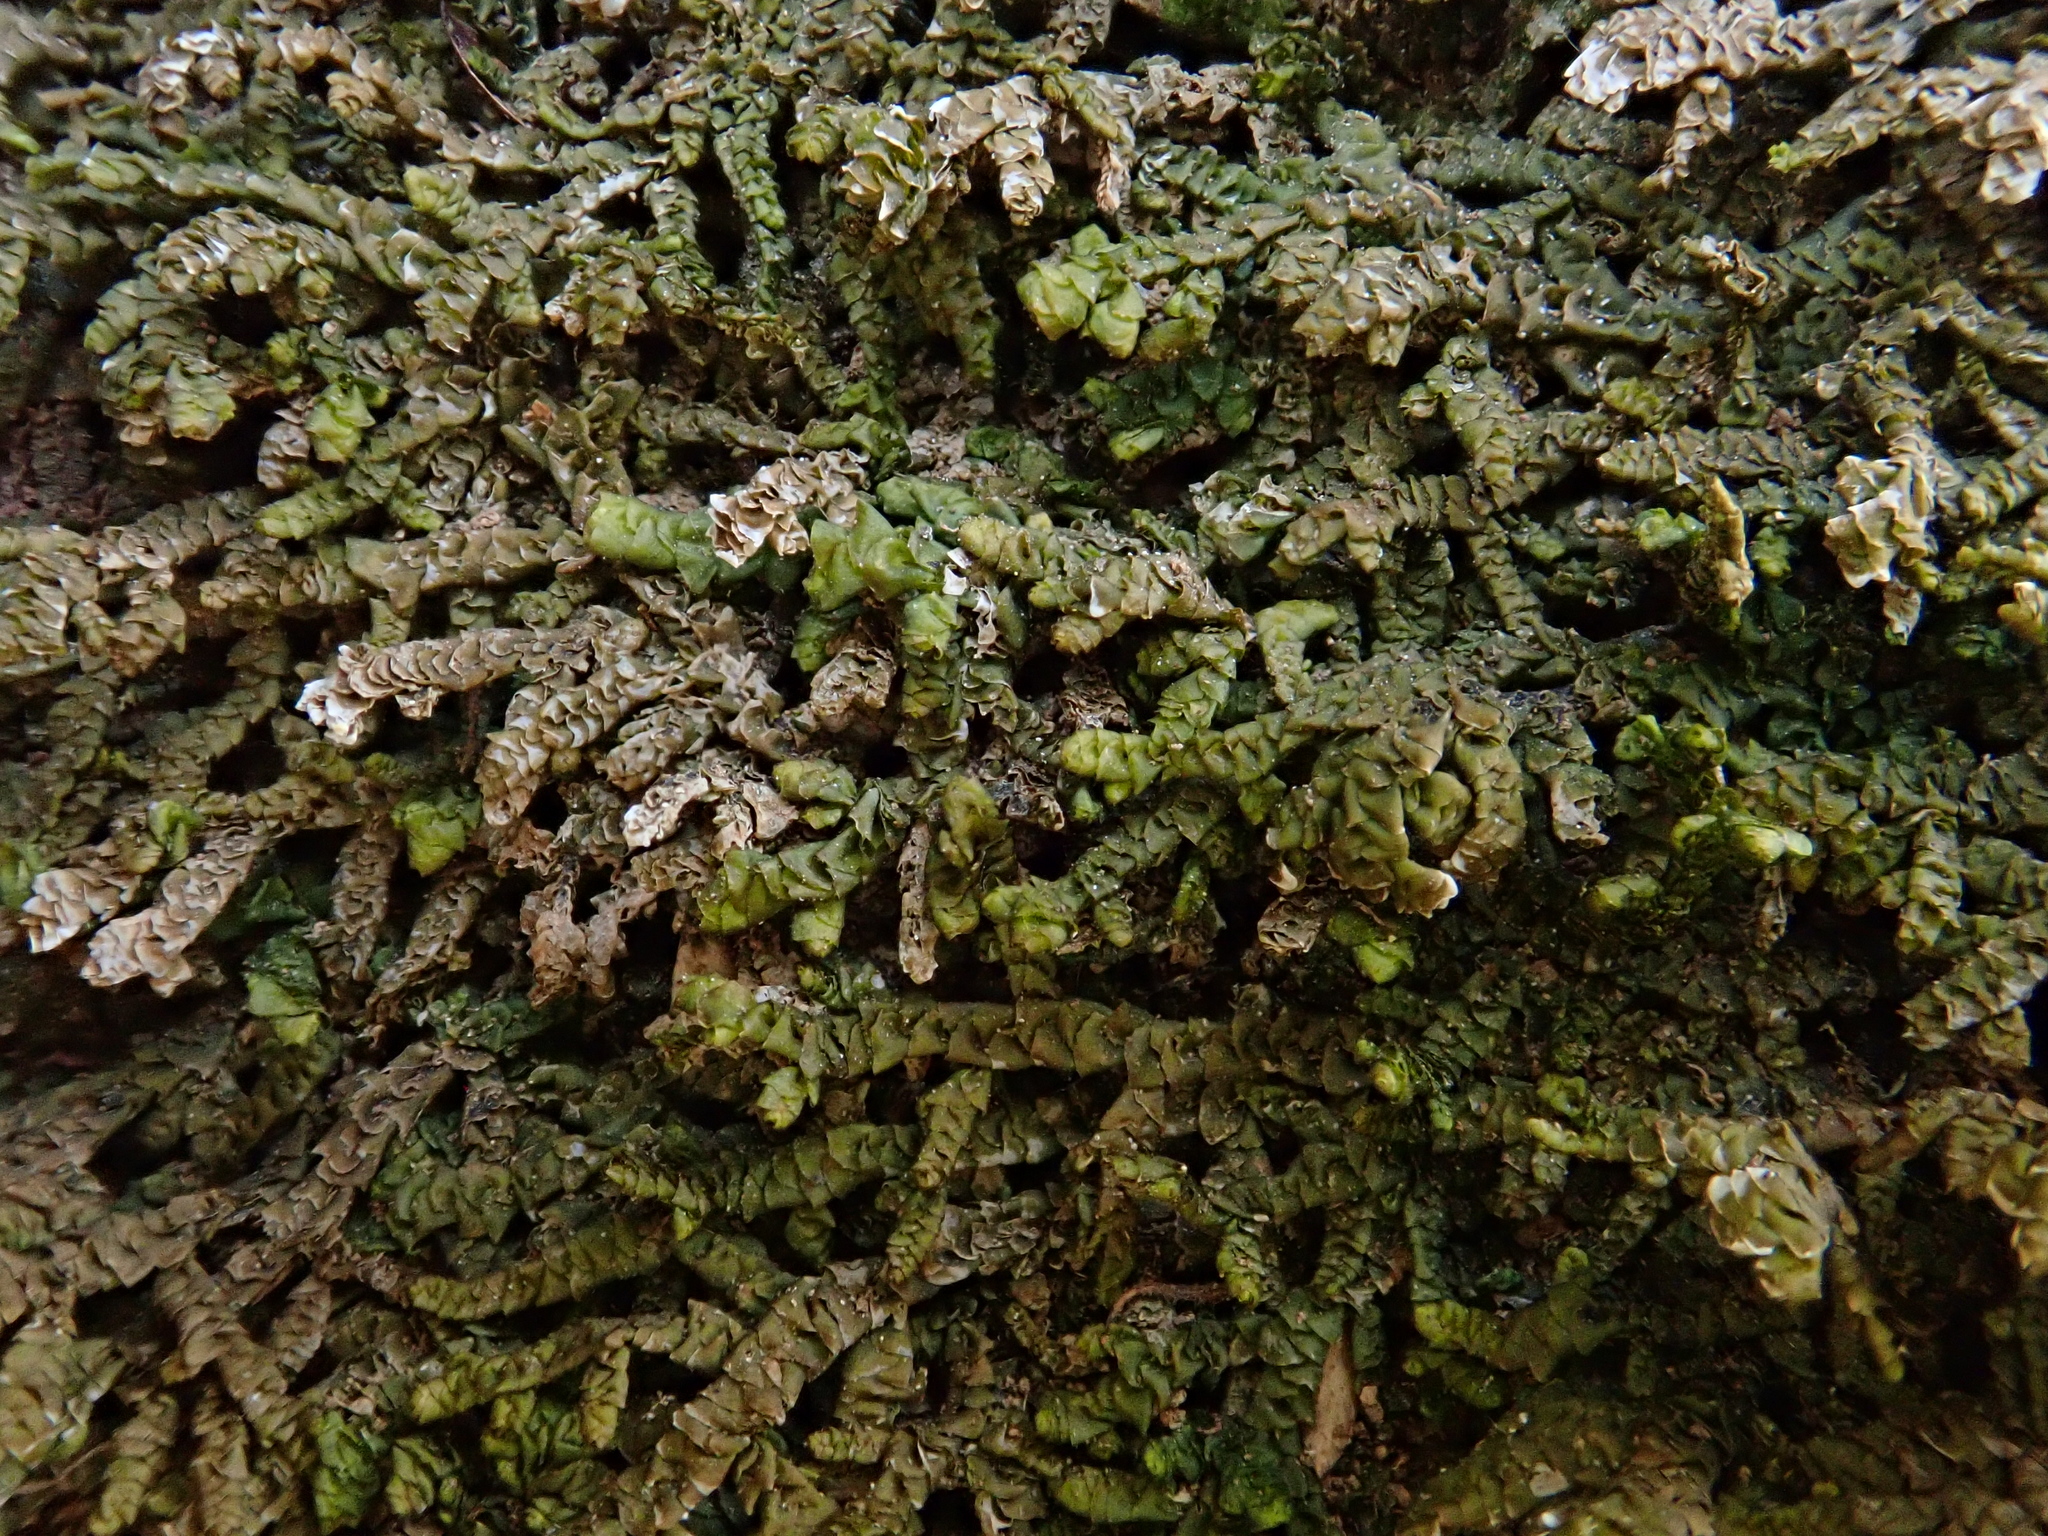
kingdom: Plantae
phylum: Marchantiophyta
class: Jungermanniopsida
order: Porellales
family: Porellaceae
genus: Porella
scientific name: Porella platyphylla
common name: Wall scalewort
